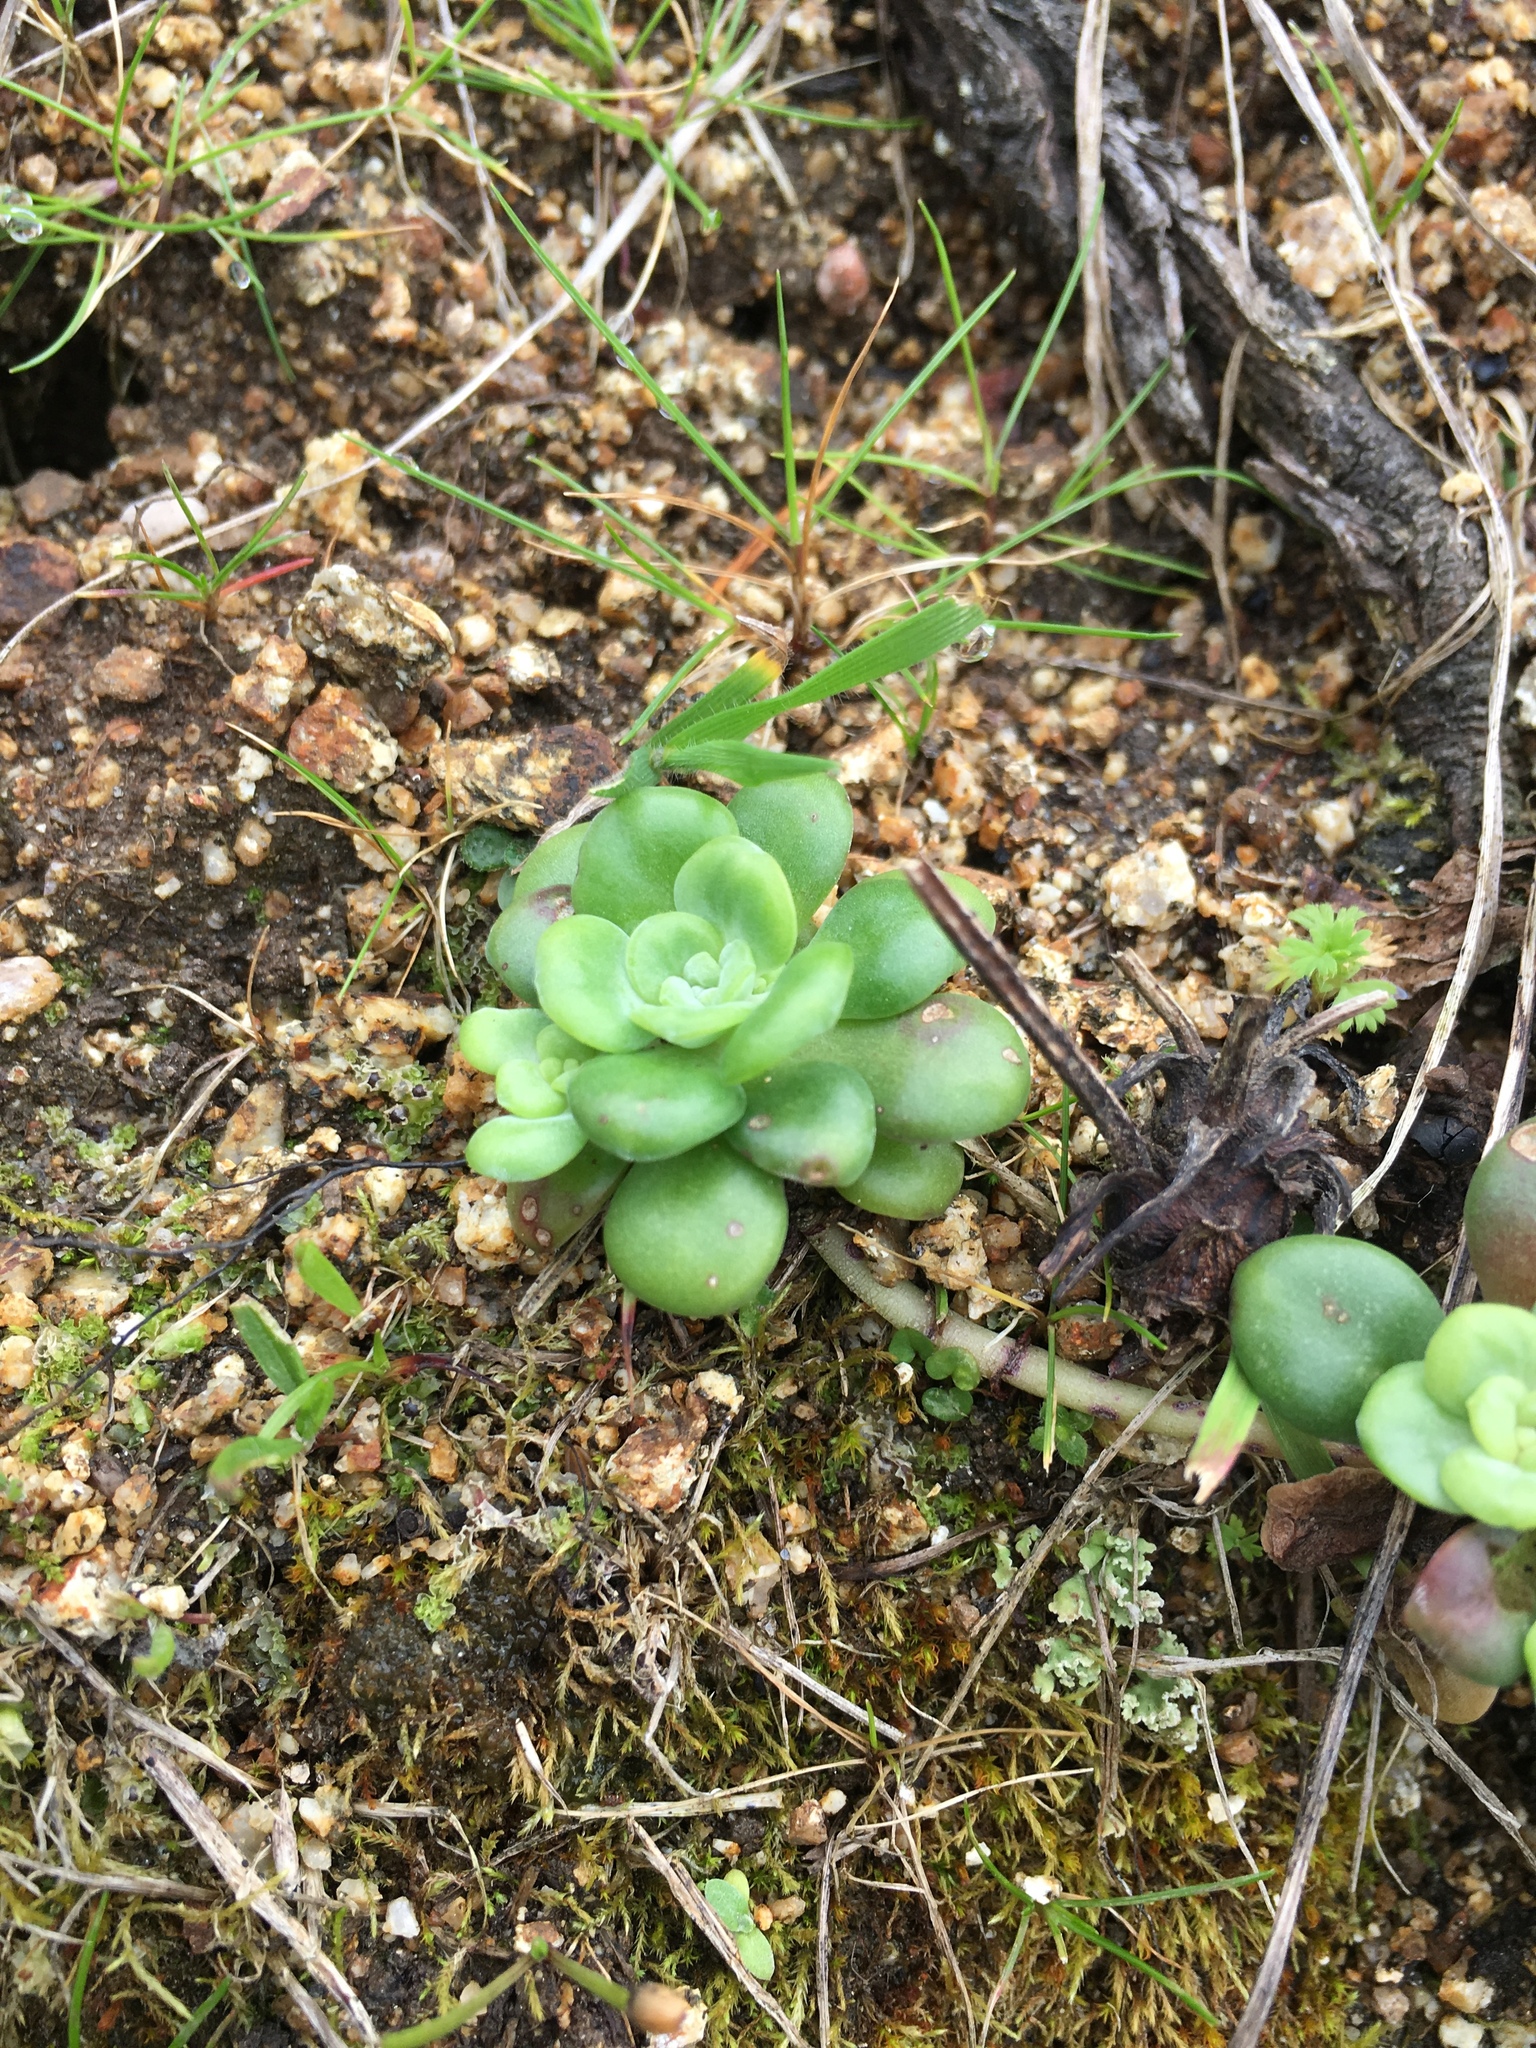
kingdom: Plantae
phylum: Tracheophyta
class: Magnoliopsida
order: Saxifragales
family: Crassulaceae
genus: Sedum
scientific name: Sedum spathulifolium
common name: Colorado stonecrop
